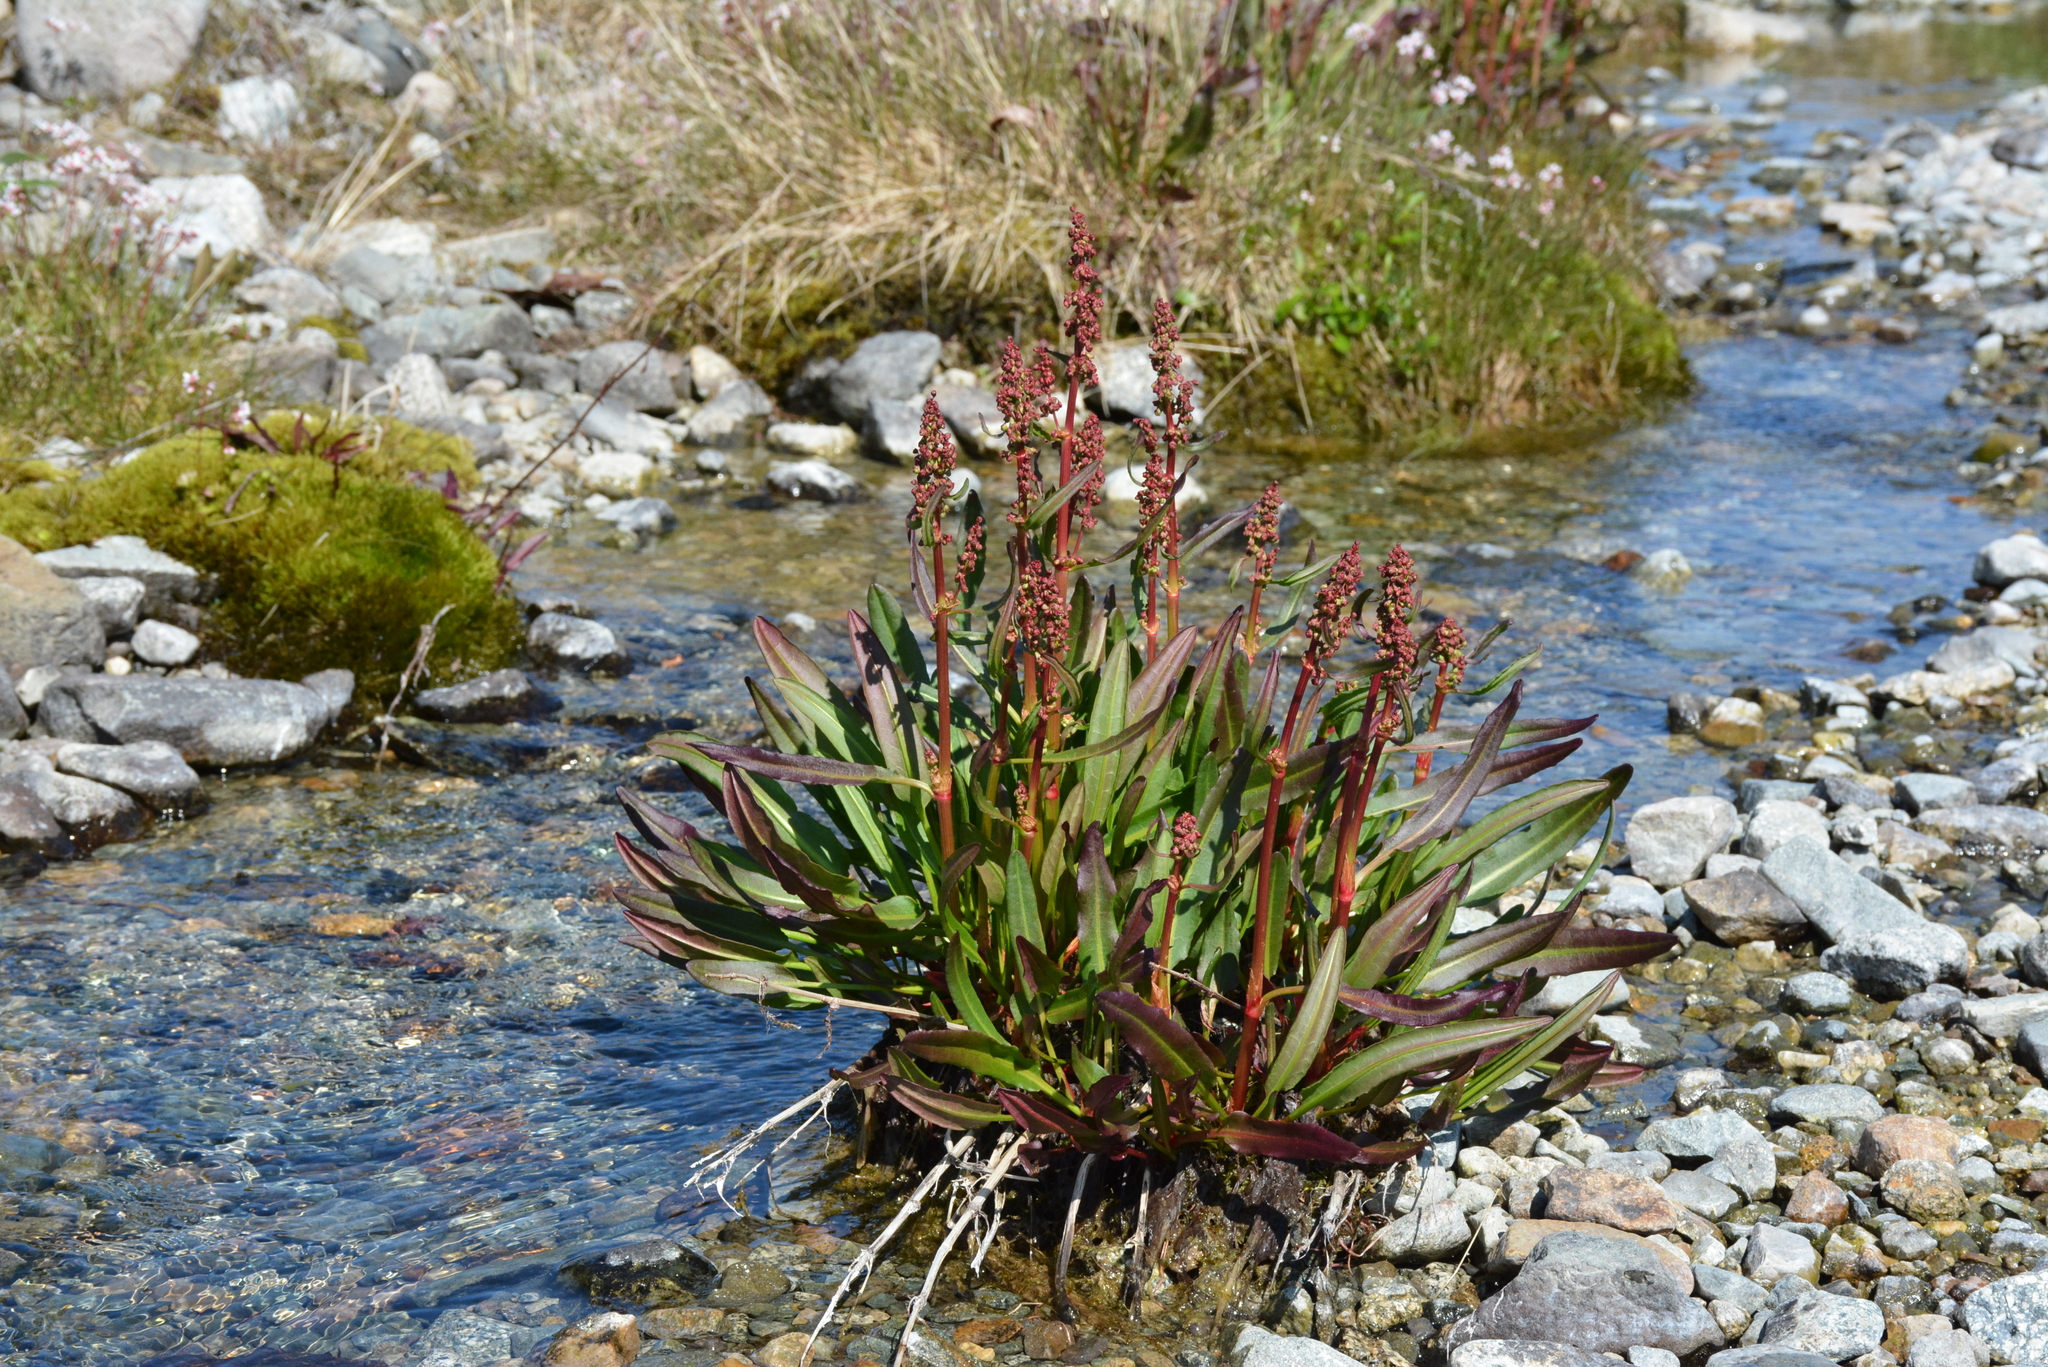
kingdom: Plantae
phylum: Tracheophyta
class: Magnoliopsida
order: Caryophyllales
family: Polygonaceae
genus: Rumex
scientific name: Rumex arcticus
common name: Arctic dock
